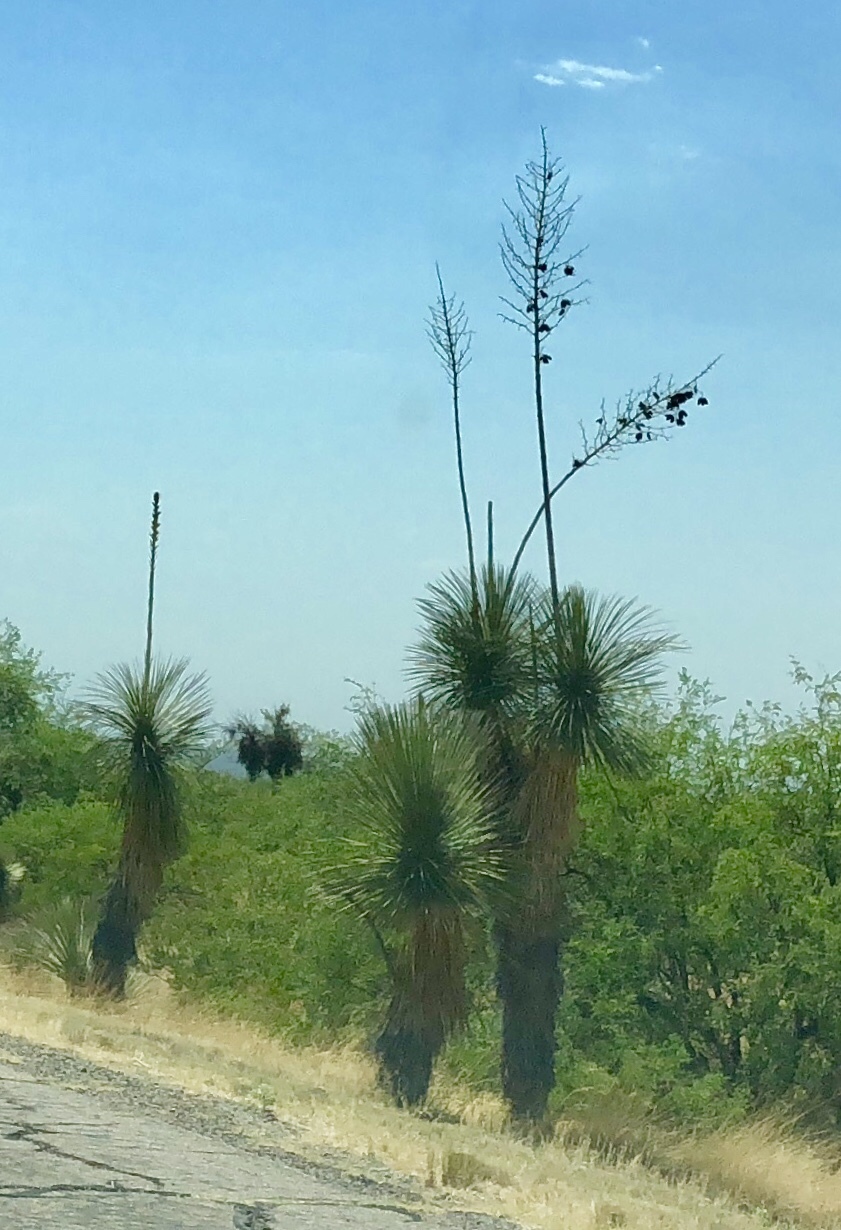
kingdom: Plantae
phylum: Tracheophyta
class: Liliopsida
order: Asparagales
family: Asparagaceae
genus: Yucca
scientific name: Yucca elata
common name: Palmella
